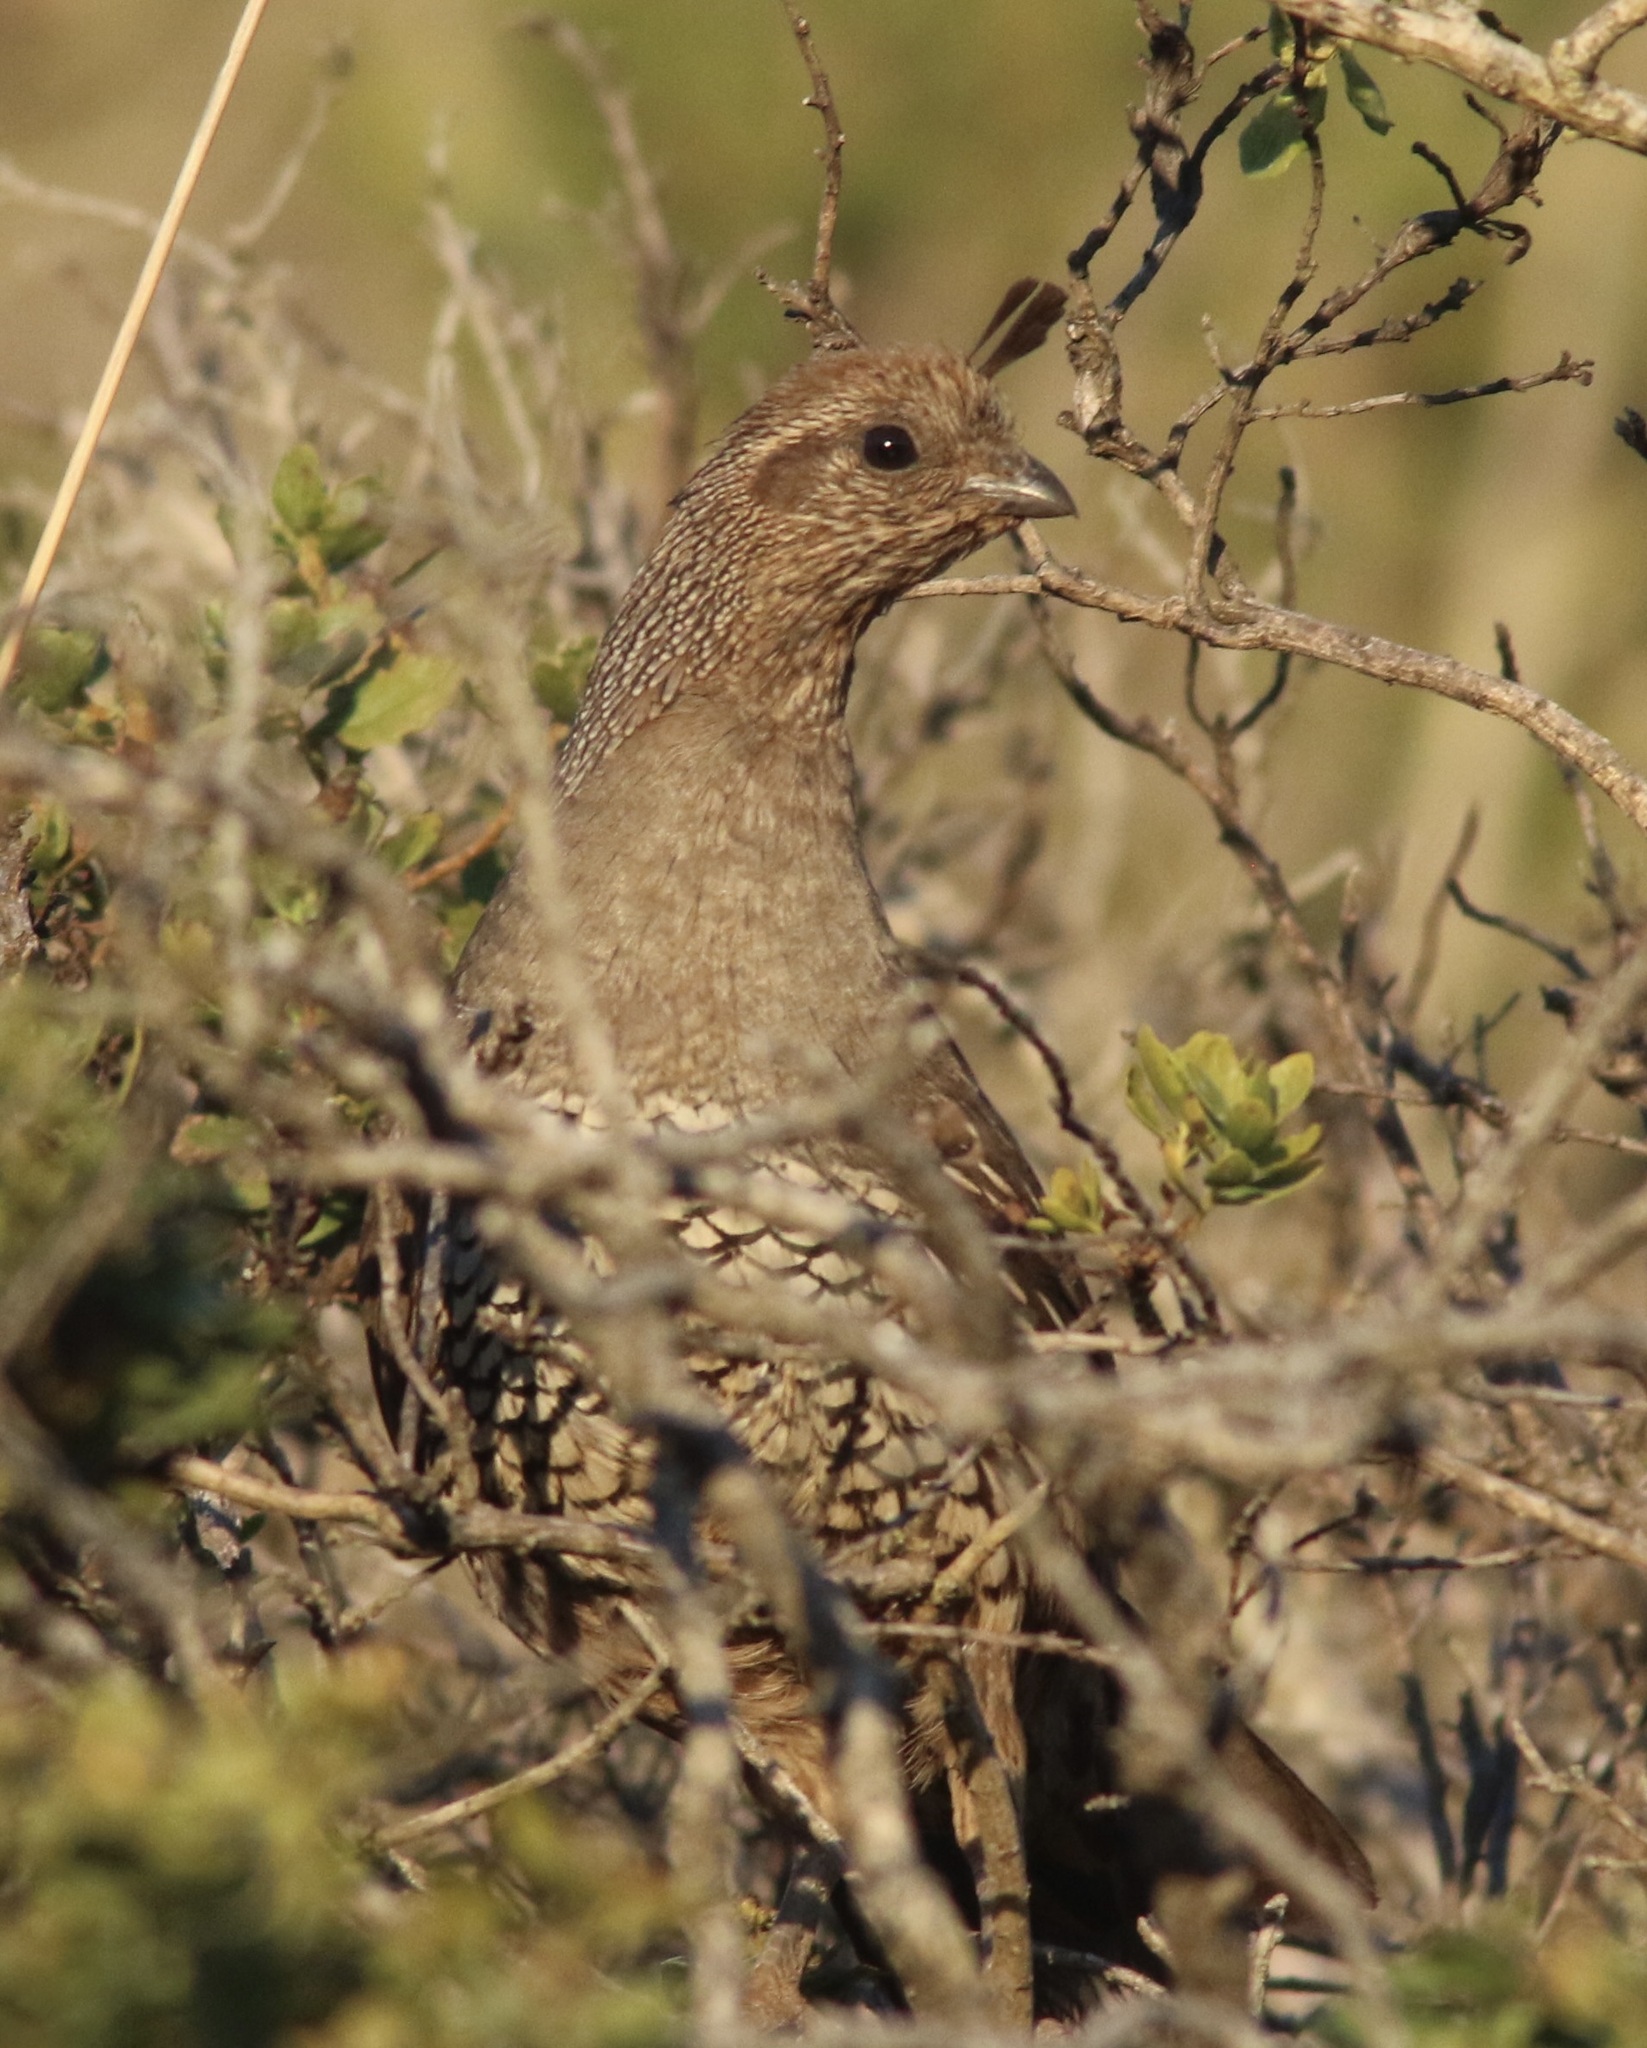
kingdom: Animalia
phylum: Chordata
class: Aves
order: Galliformes
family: Odontophoridae
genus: Callipepla
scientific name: Callipepla californica
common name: California quail
